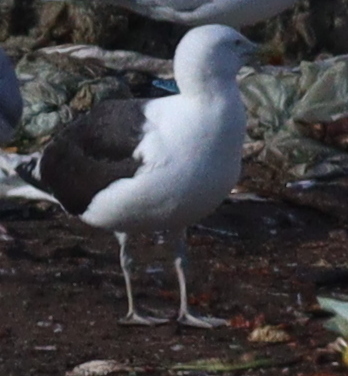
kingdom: Animalia
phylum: Chordata
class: Aves
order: Charadriiformes
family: Laridae
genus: Larus
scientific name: Larus marinus
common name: Great black-backed gull
